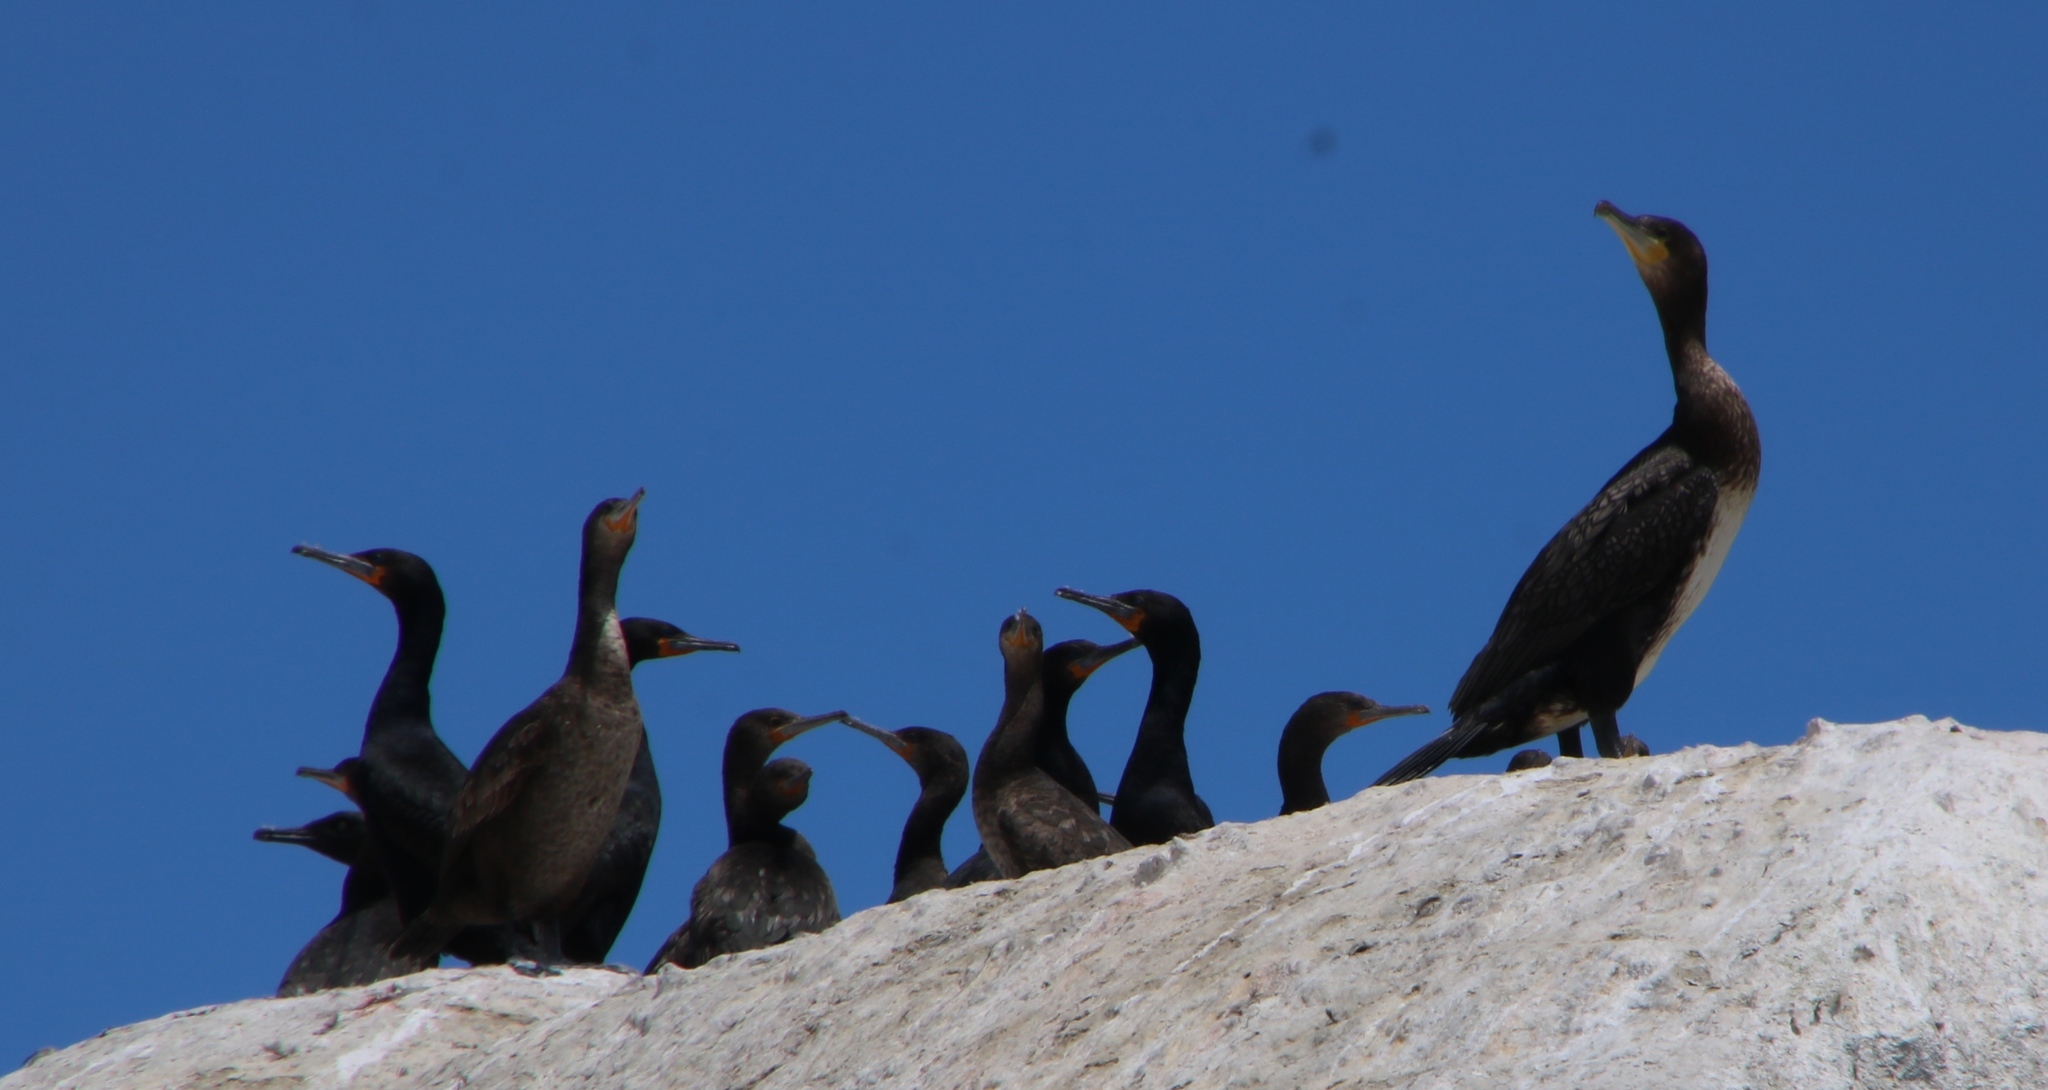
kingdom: Animalia
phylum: Chordata
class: Aves
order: Suliformes
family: Phalacrocoracidae
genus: Phalacrocorax
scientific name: Phalacrocorax carbo
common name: Great cormorant
